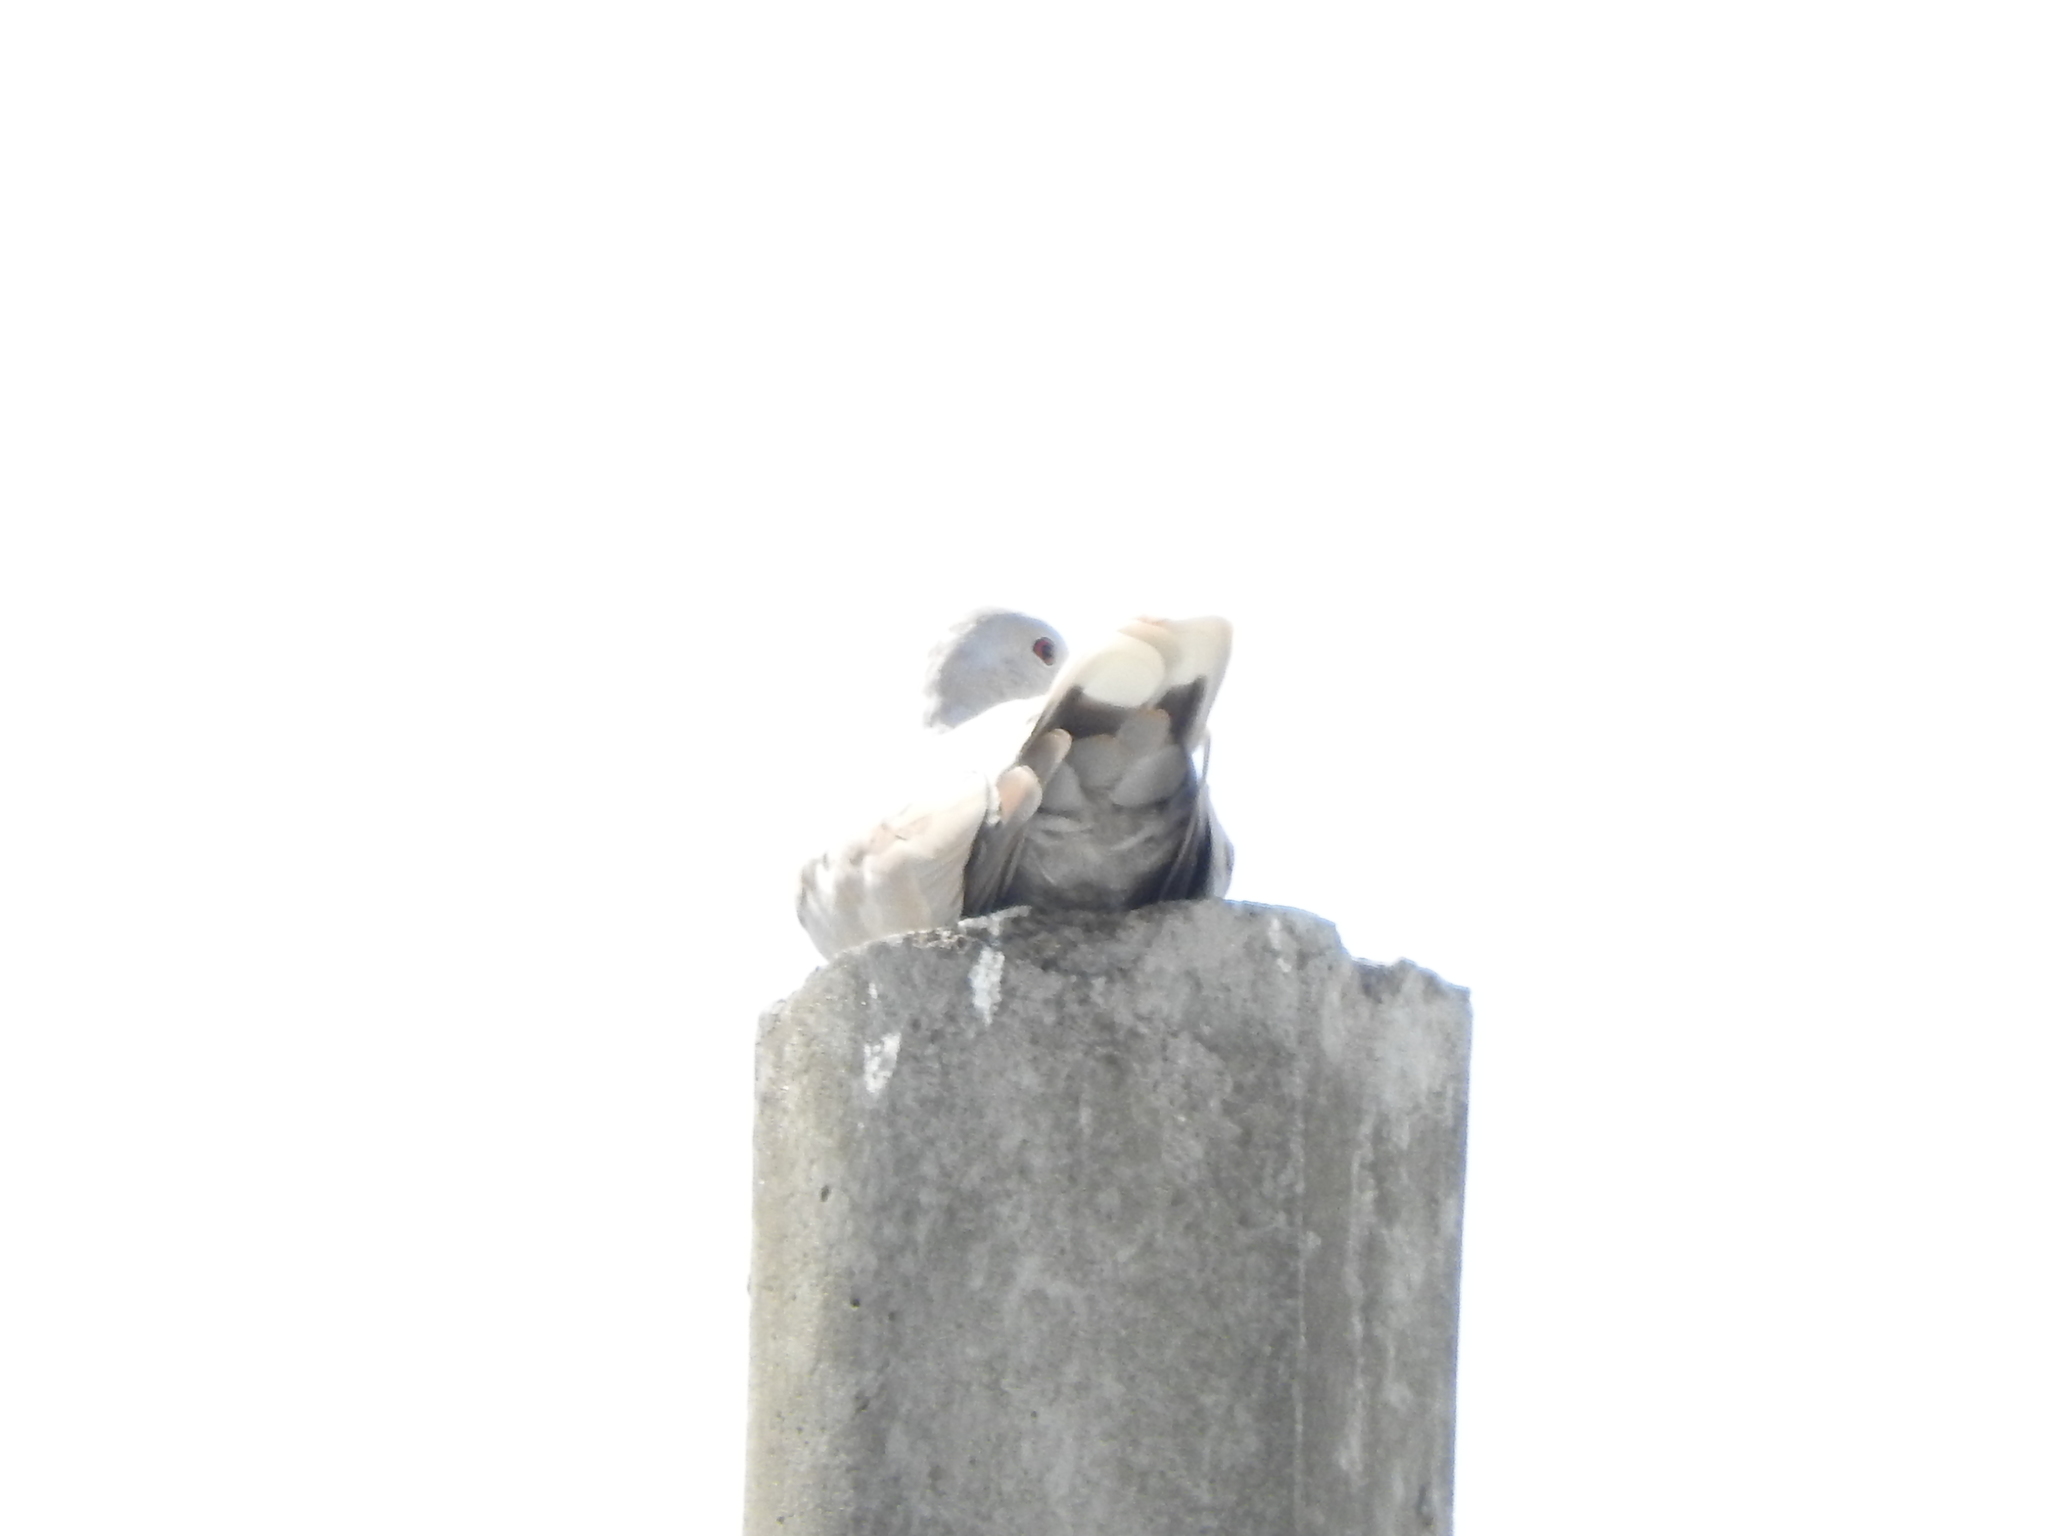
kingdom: Animalia
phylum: Chordata
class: Aves
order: Columbiformes
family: Columbidae
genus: Streptopelia
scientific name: Streptopelia decaocto
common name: Eurasian collared dove
